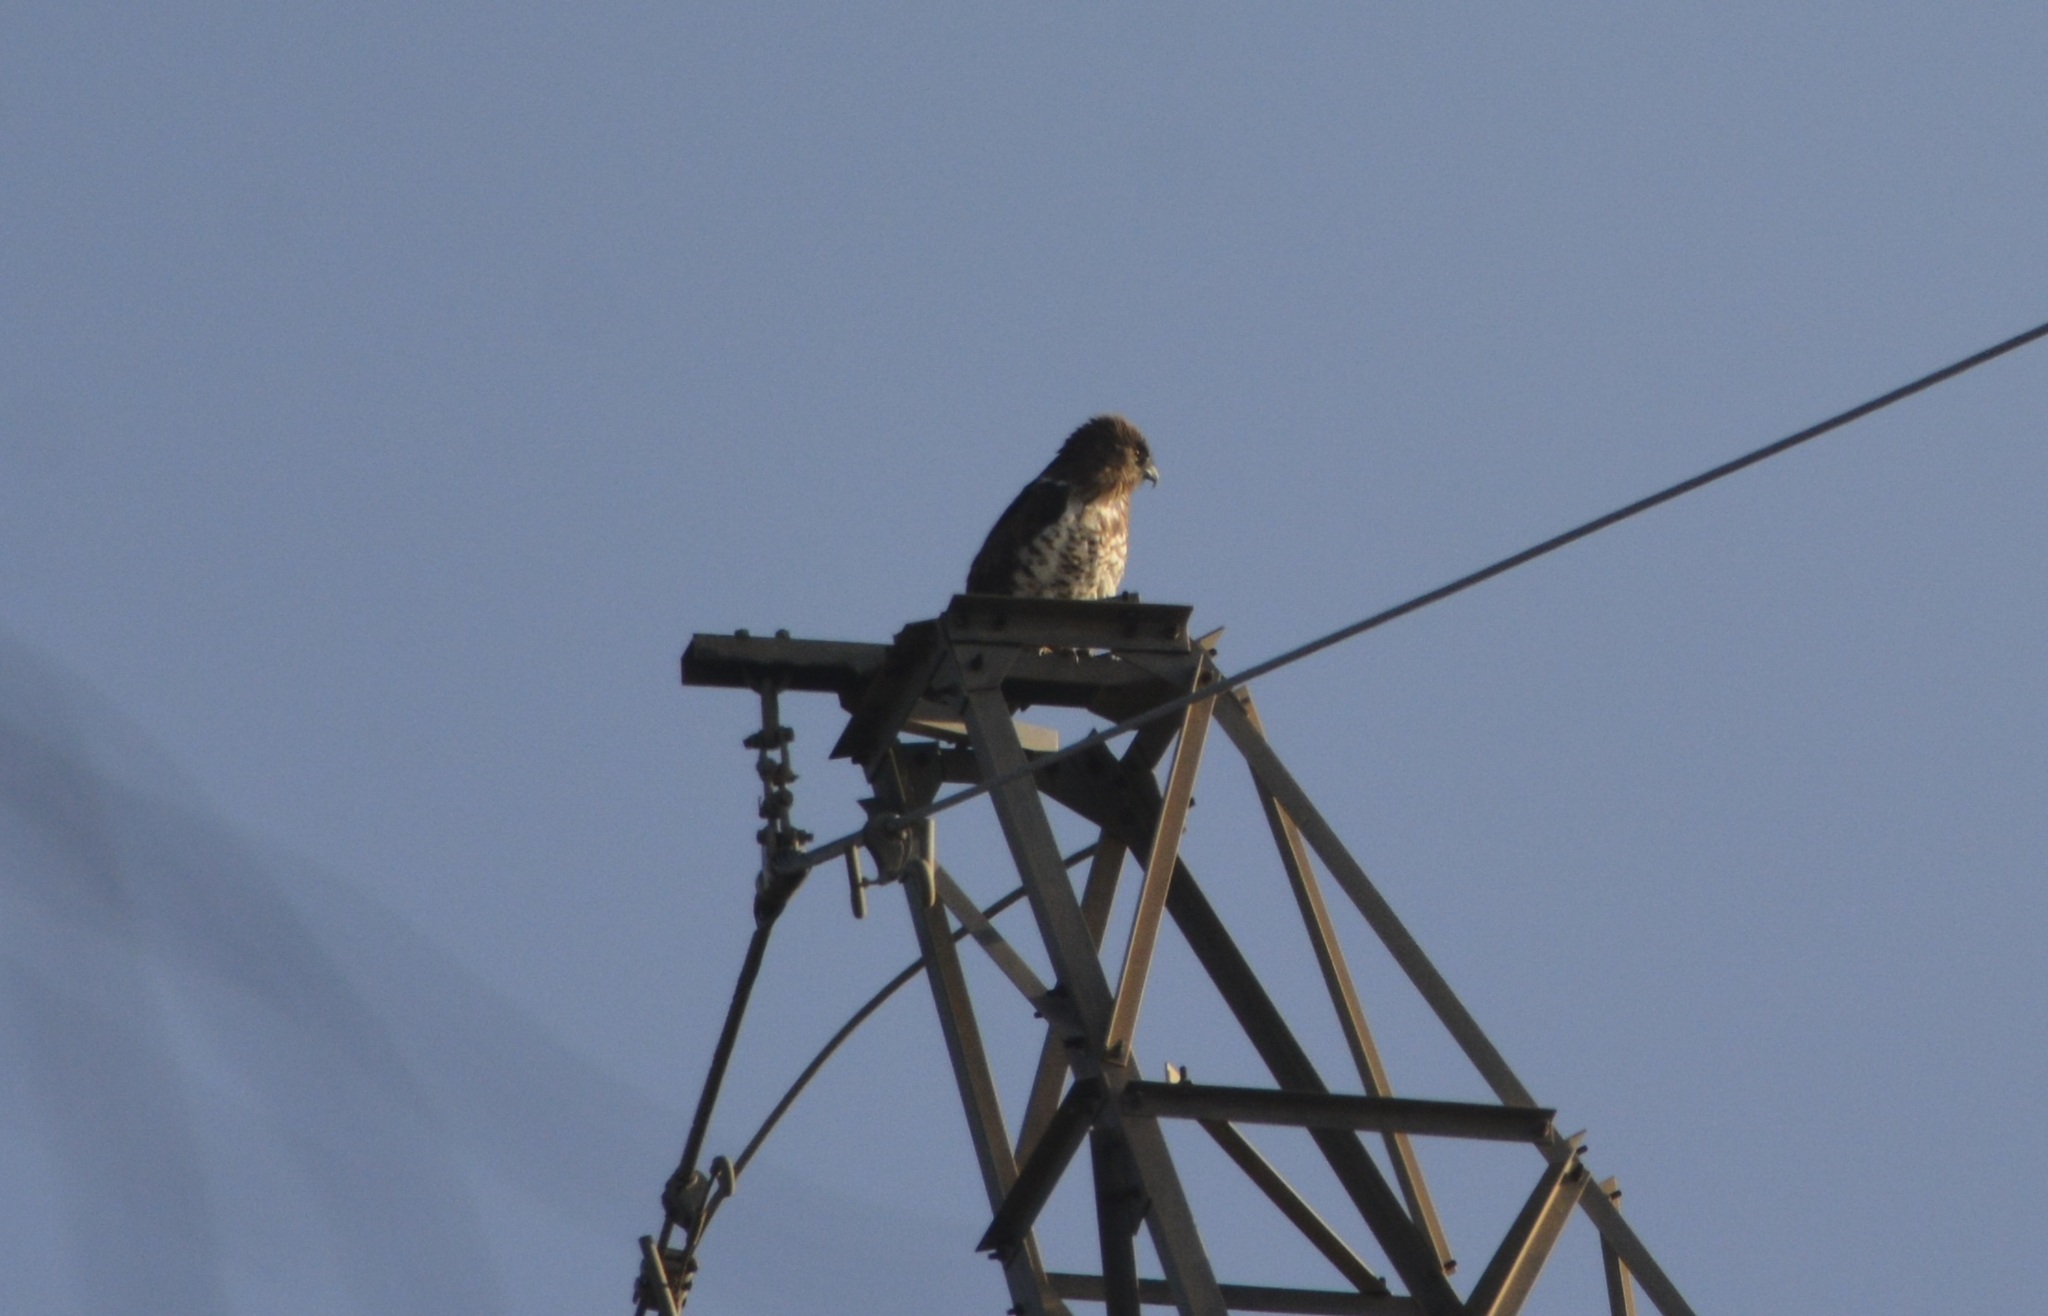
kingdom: Animalia
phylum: Chordata
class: Aves
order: Accipitriformes
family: Accipitridae
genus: Circaetus
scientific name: Circaetus gallicus
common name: Short-toed snake eagle
